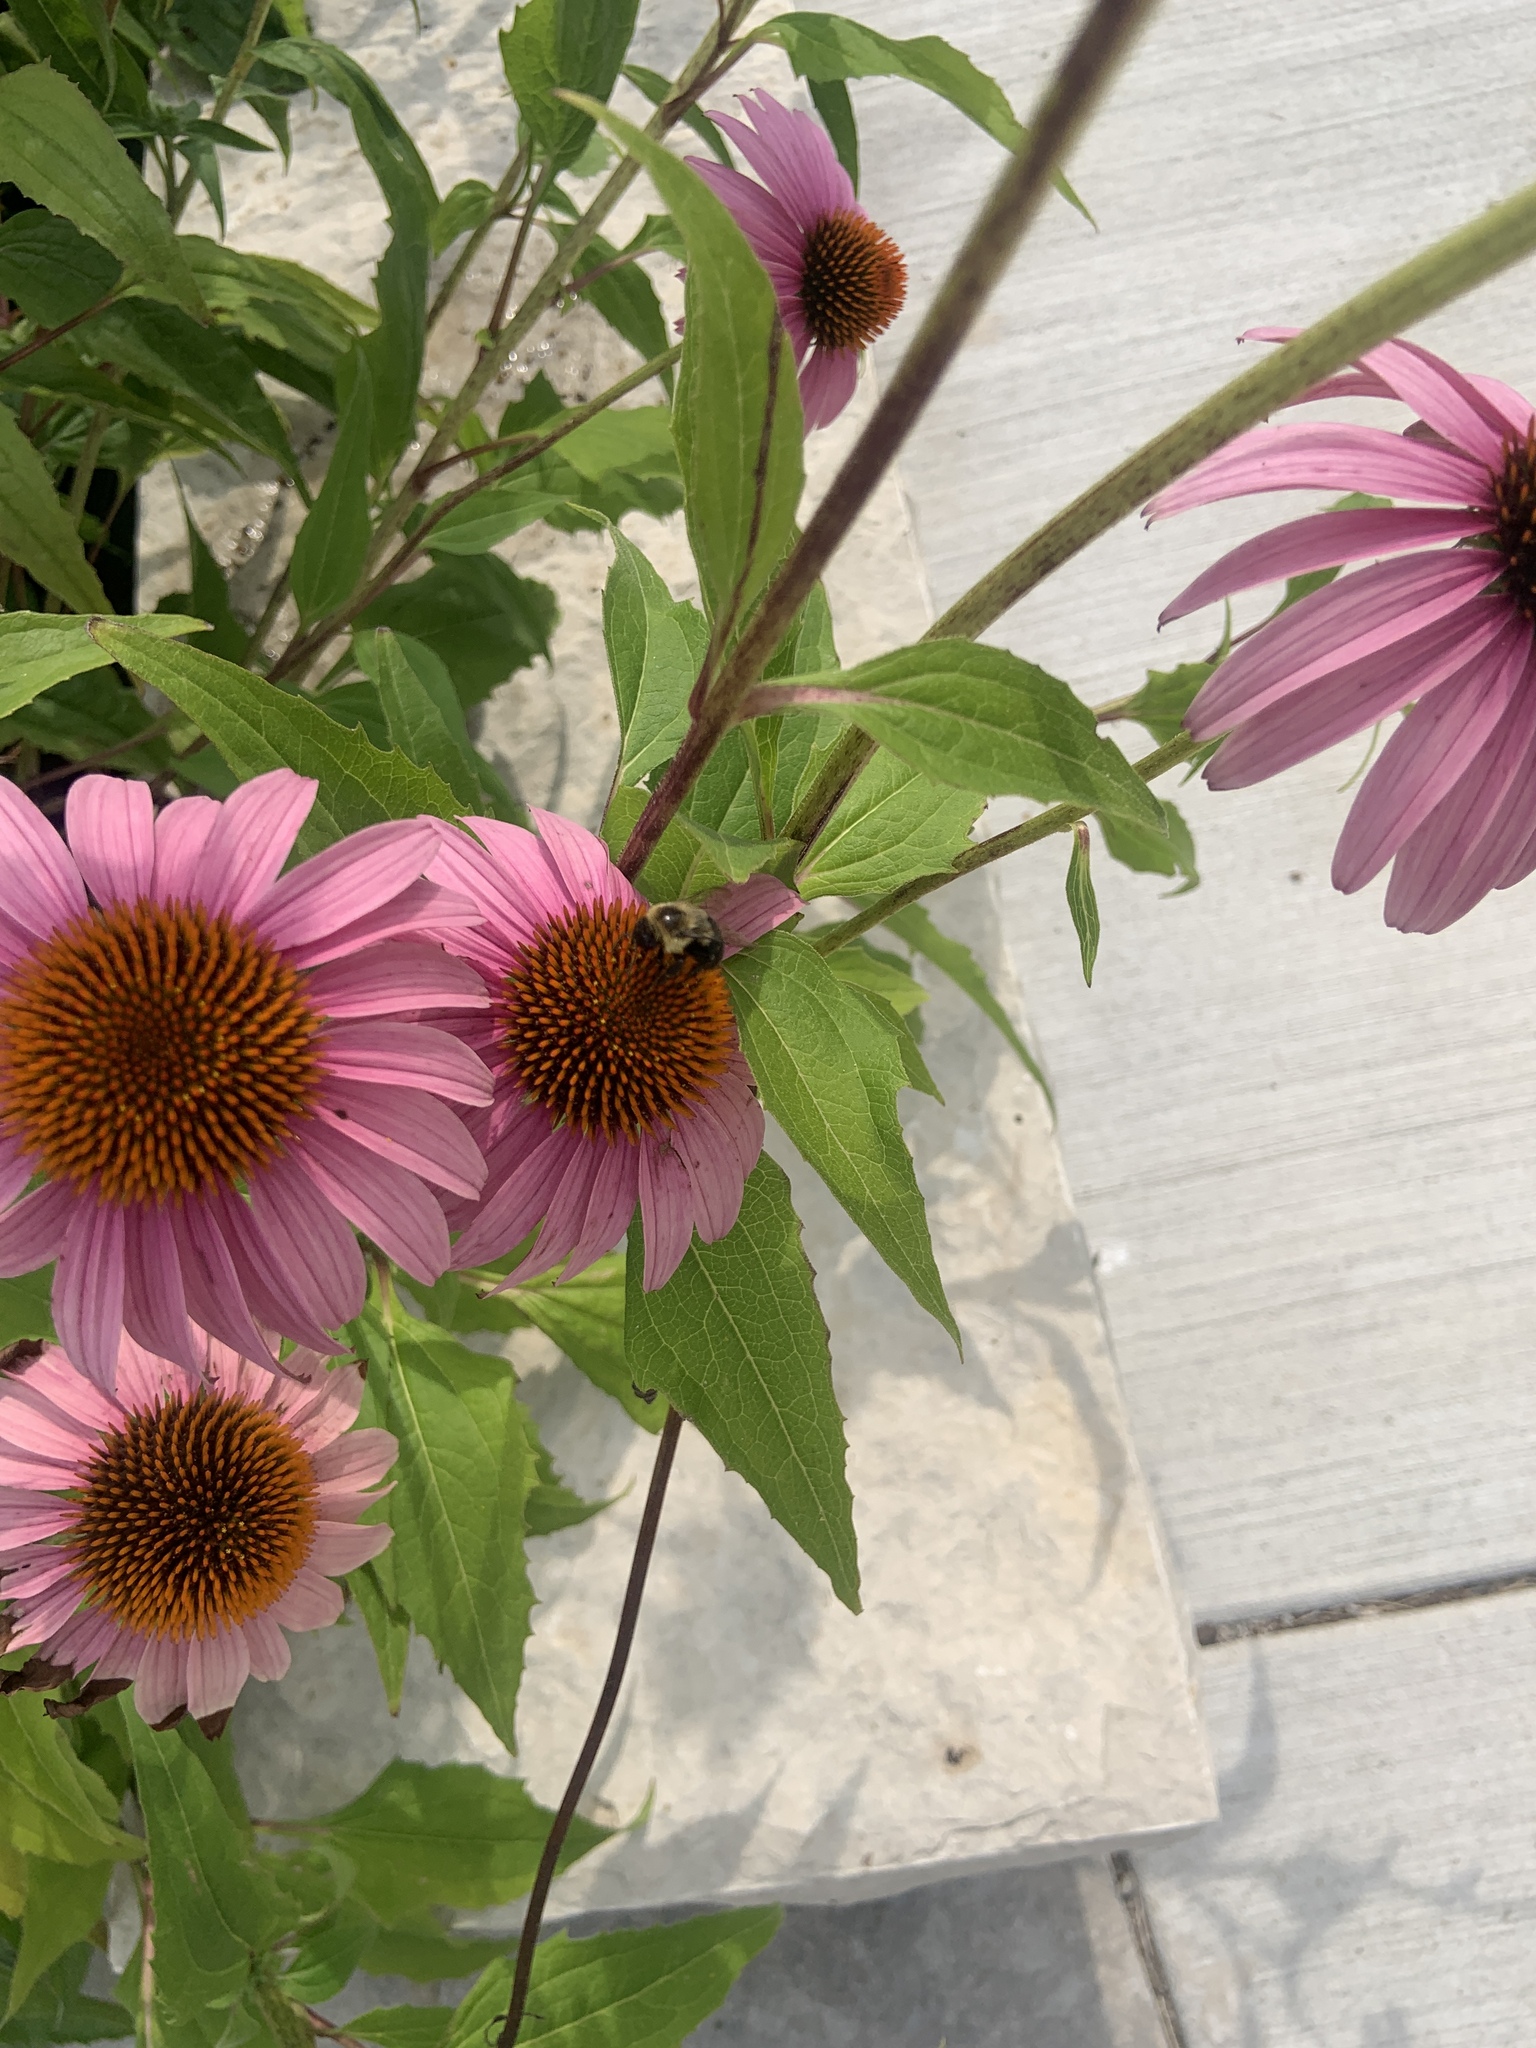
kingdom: Animalia
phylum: Arthropoda
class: Insecta
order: Hymenoptera
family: Apidae
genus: Bombus
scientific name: Bombus impatiens
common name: Common eastern bumble bee
